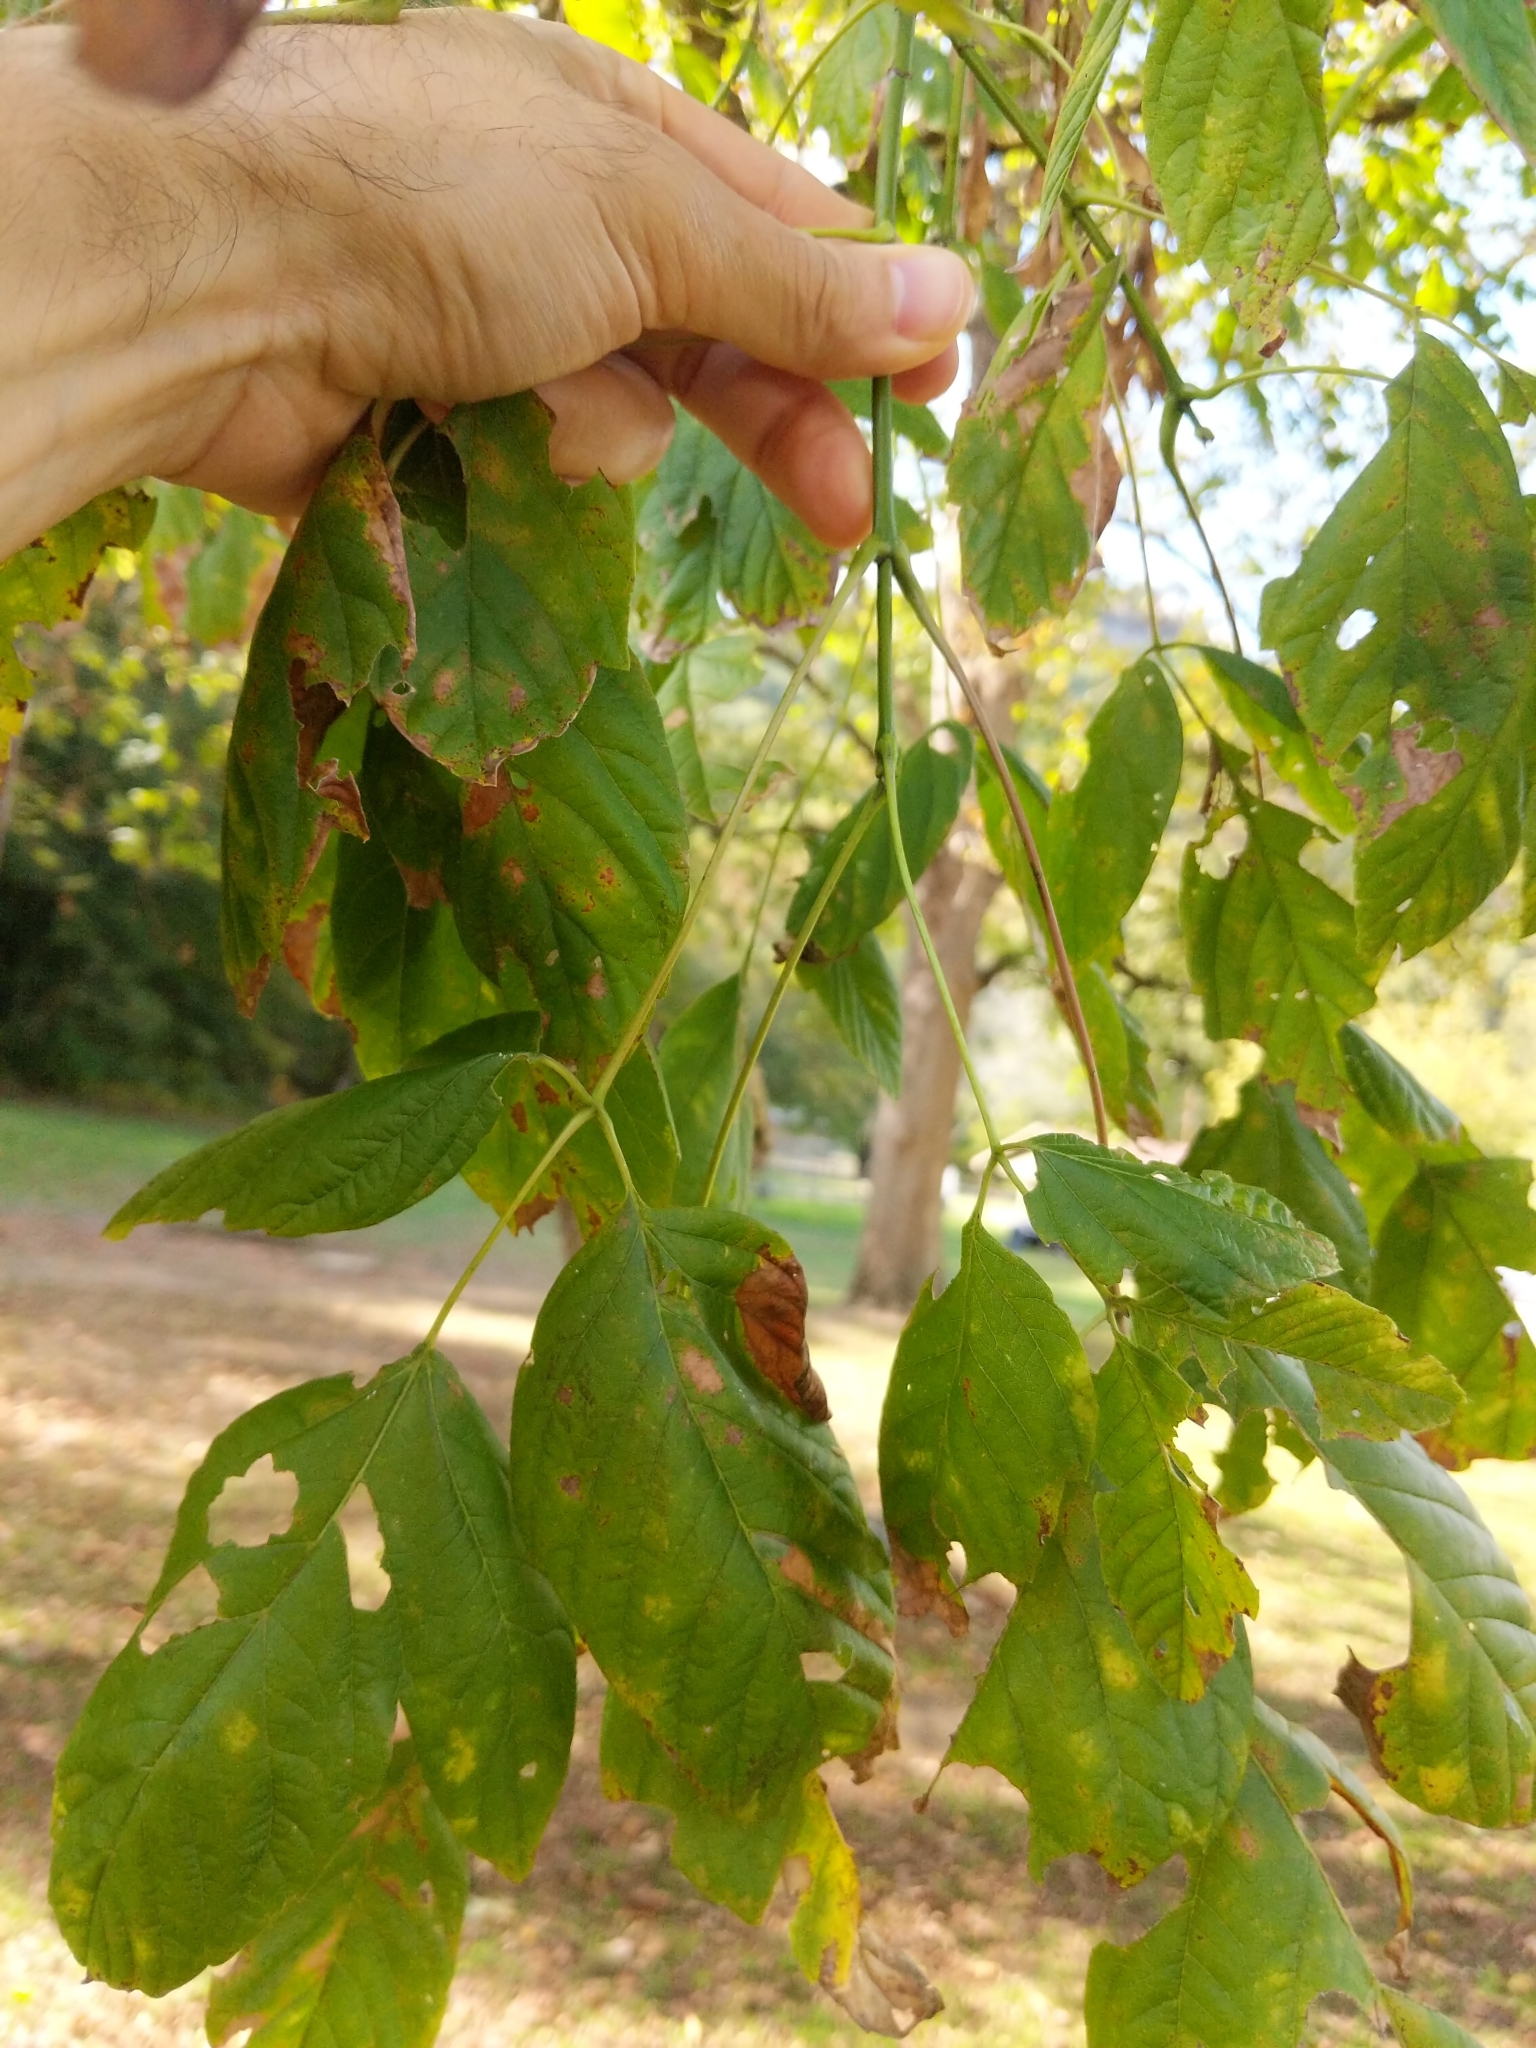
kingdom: Plantae
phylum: Tracheophyta
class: Magnoliopsida
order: Sapindales
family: Sapindaceae
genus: Acer
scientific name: Acer negundo
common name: Ashleaf maple
